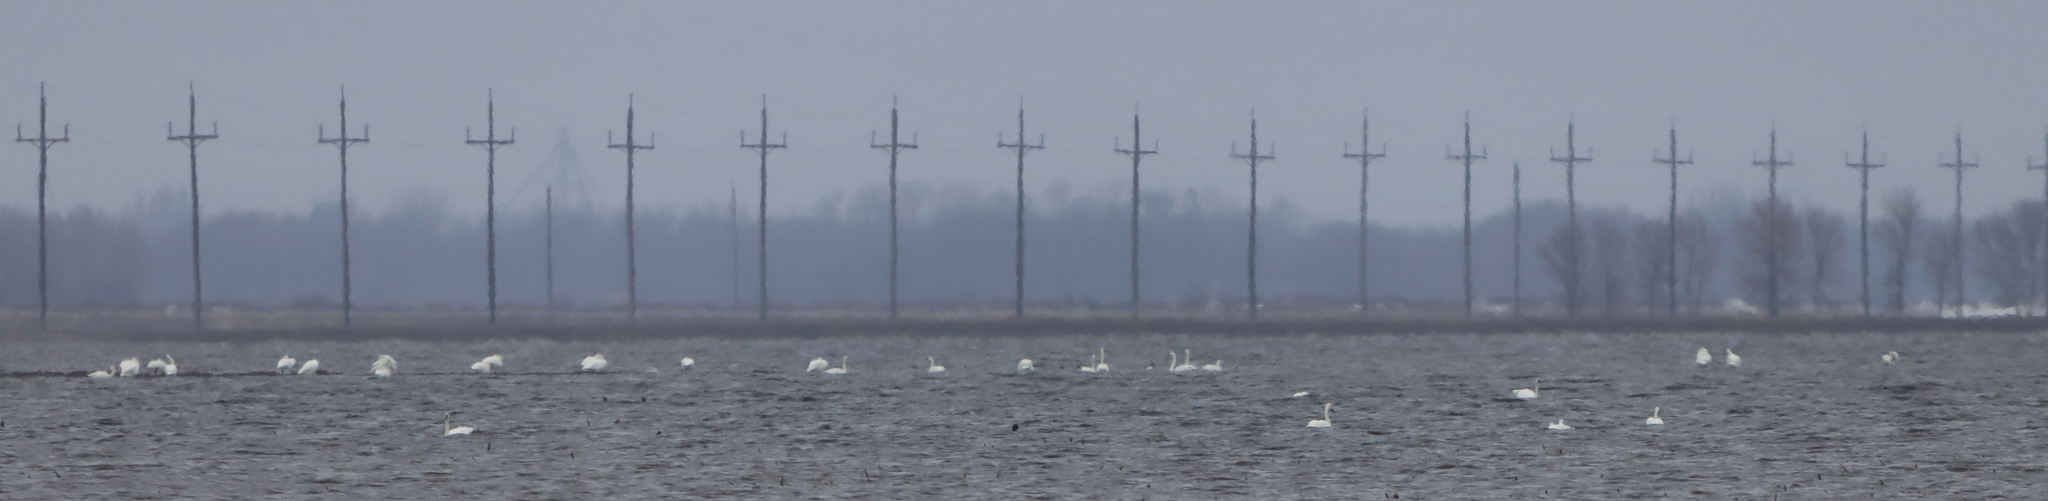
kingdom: Animalia
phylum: Chordata
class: Aves
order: Anseriformes
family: Anatidae
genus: Cygnus
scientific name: Cygnus columbianus
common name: Tundra swan
